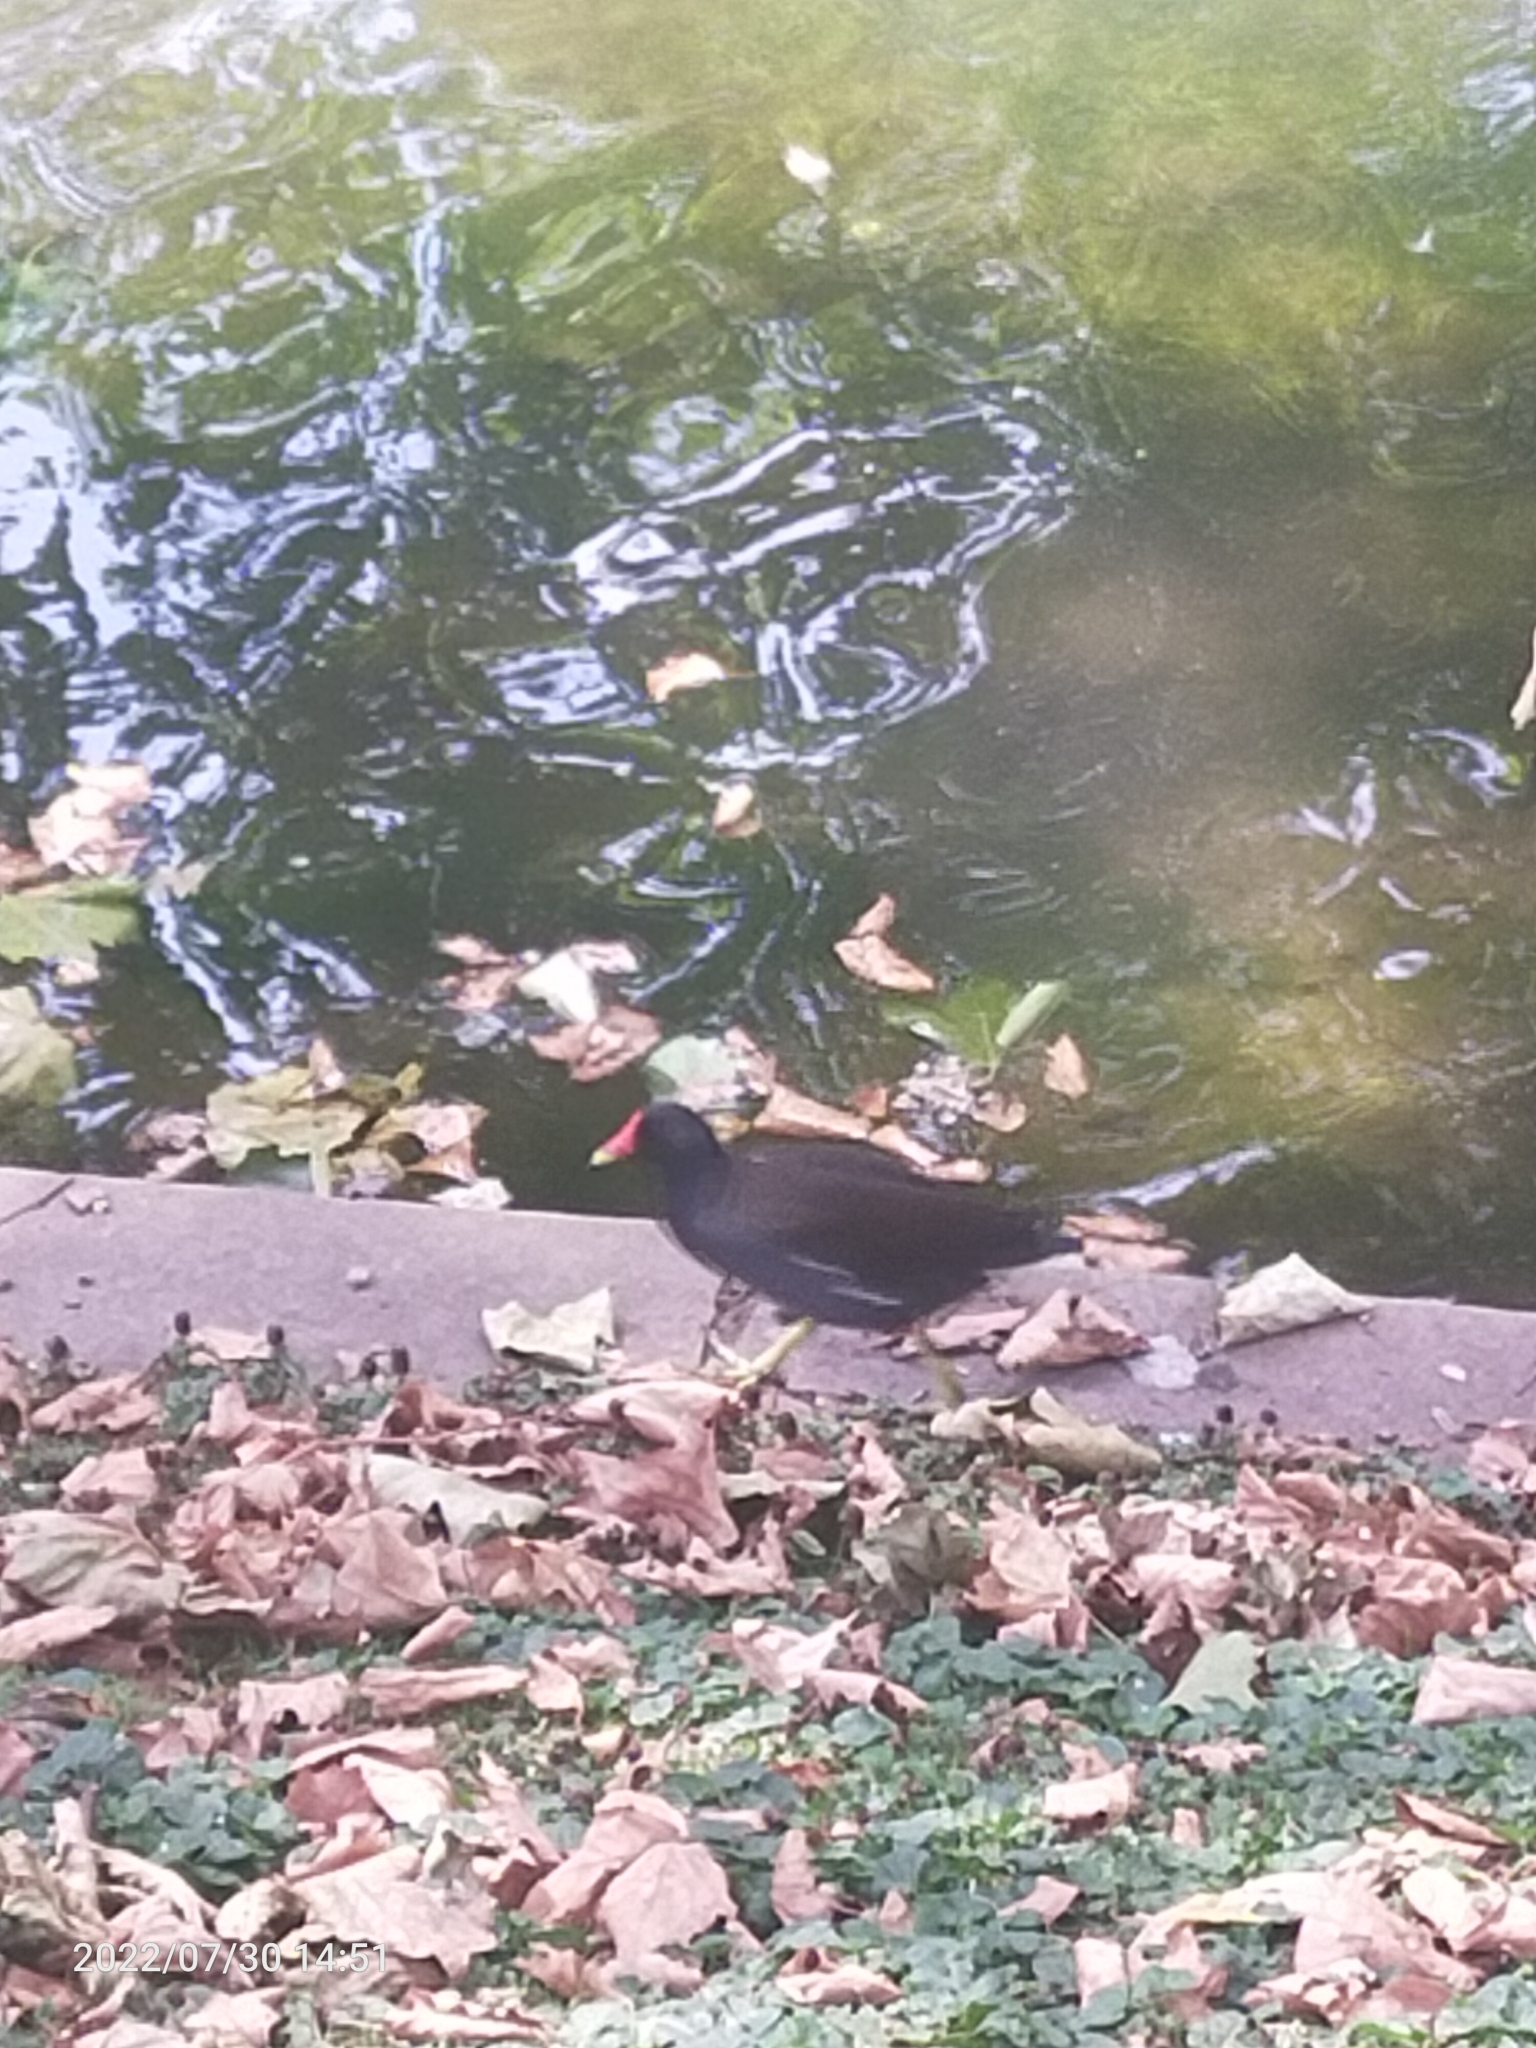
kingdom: Animalia
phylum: Chordata
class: Aves
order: Gruiformes
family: Rallidae
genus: Gallinula
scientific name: Gallinula chloropus
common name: Common moorhen
